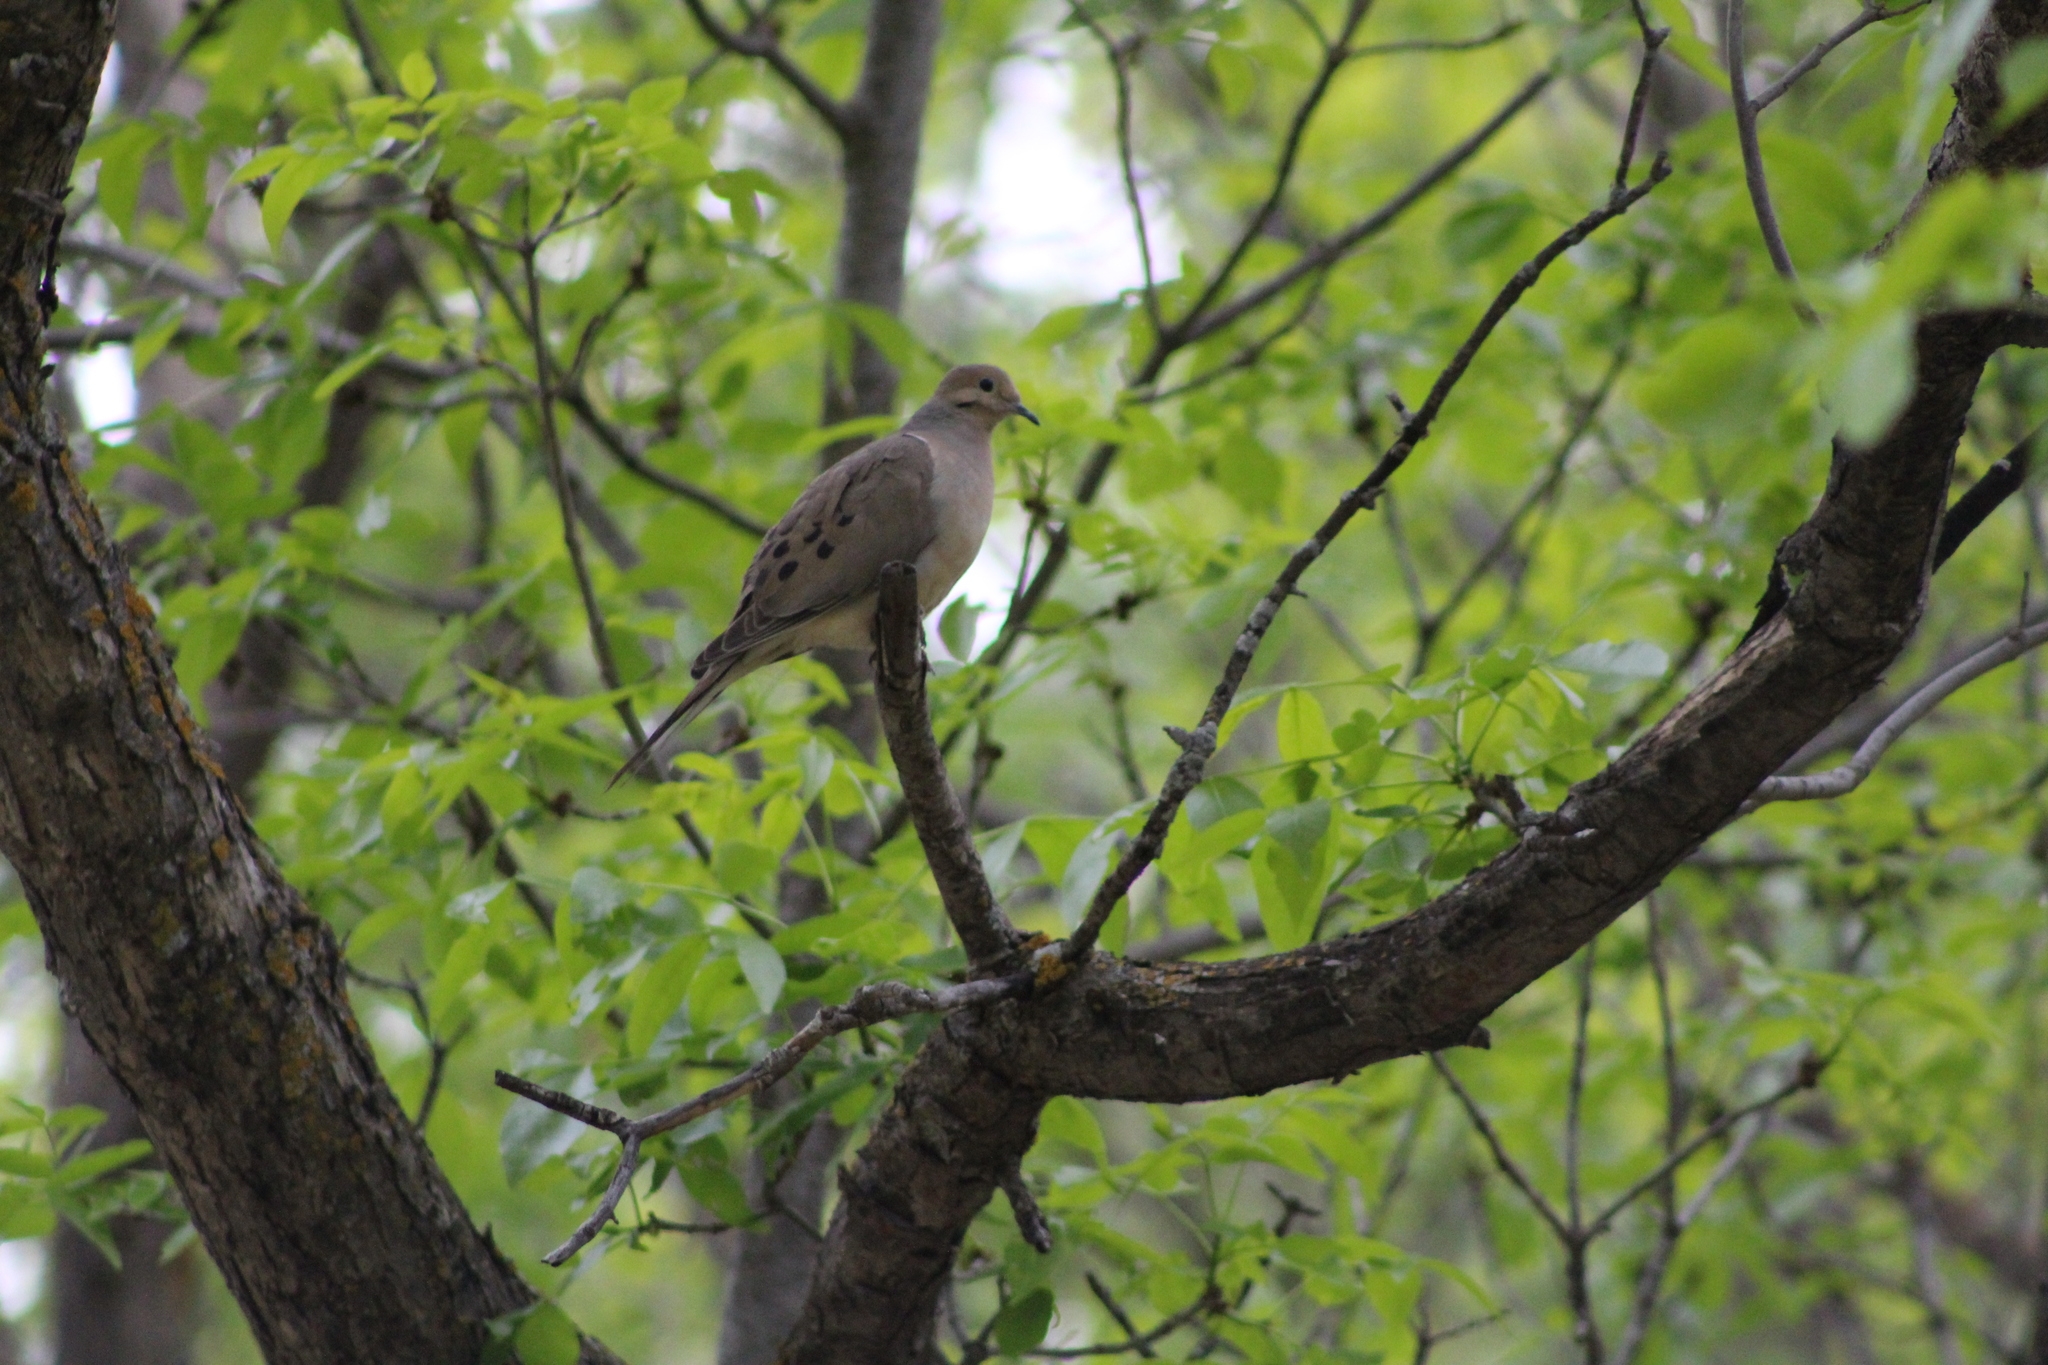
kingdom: Animalia
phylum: Chordata
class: Aves
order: Columbiformes
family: Columbidae
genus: Zenaida
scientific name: Zenaida macroura
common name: Mourning dove
